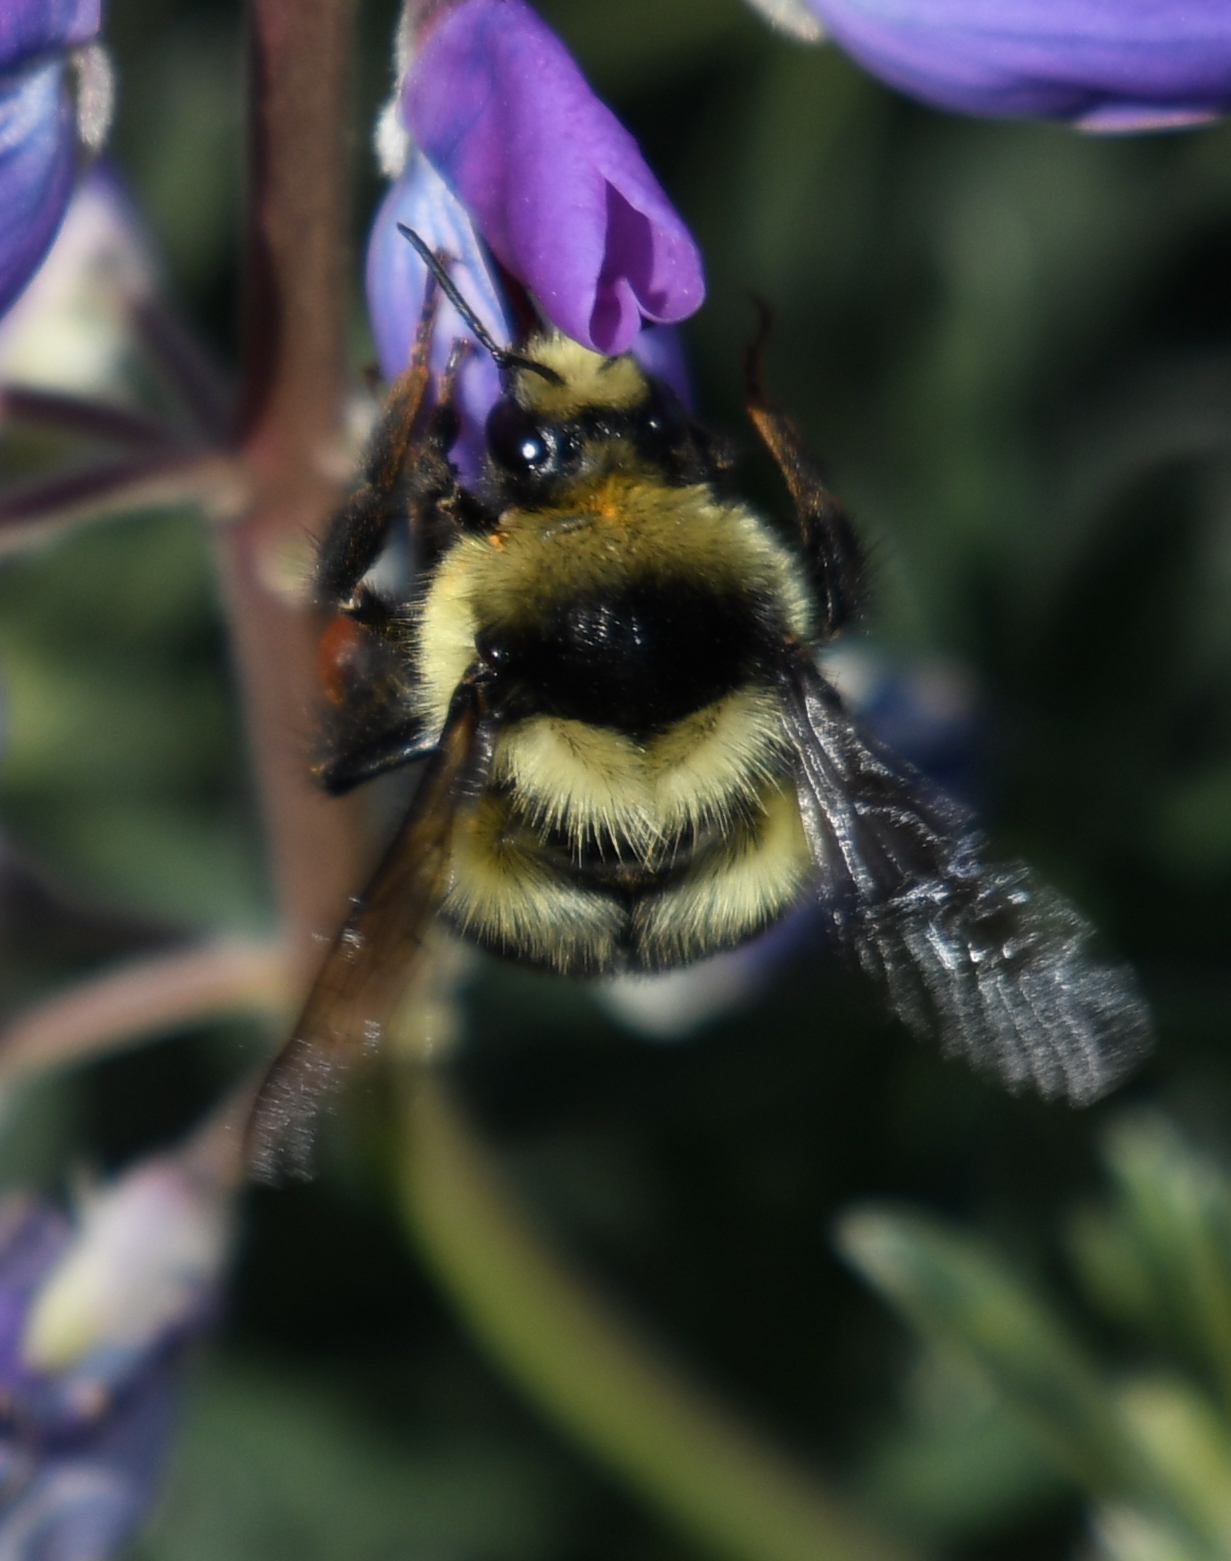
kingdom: Animalia
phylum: Arthropoda
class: Insecta
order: Hymenoptera
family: Apidae
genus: Bombus
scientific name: Bombus melanopygus
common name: Black tail bumble bee
